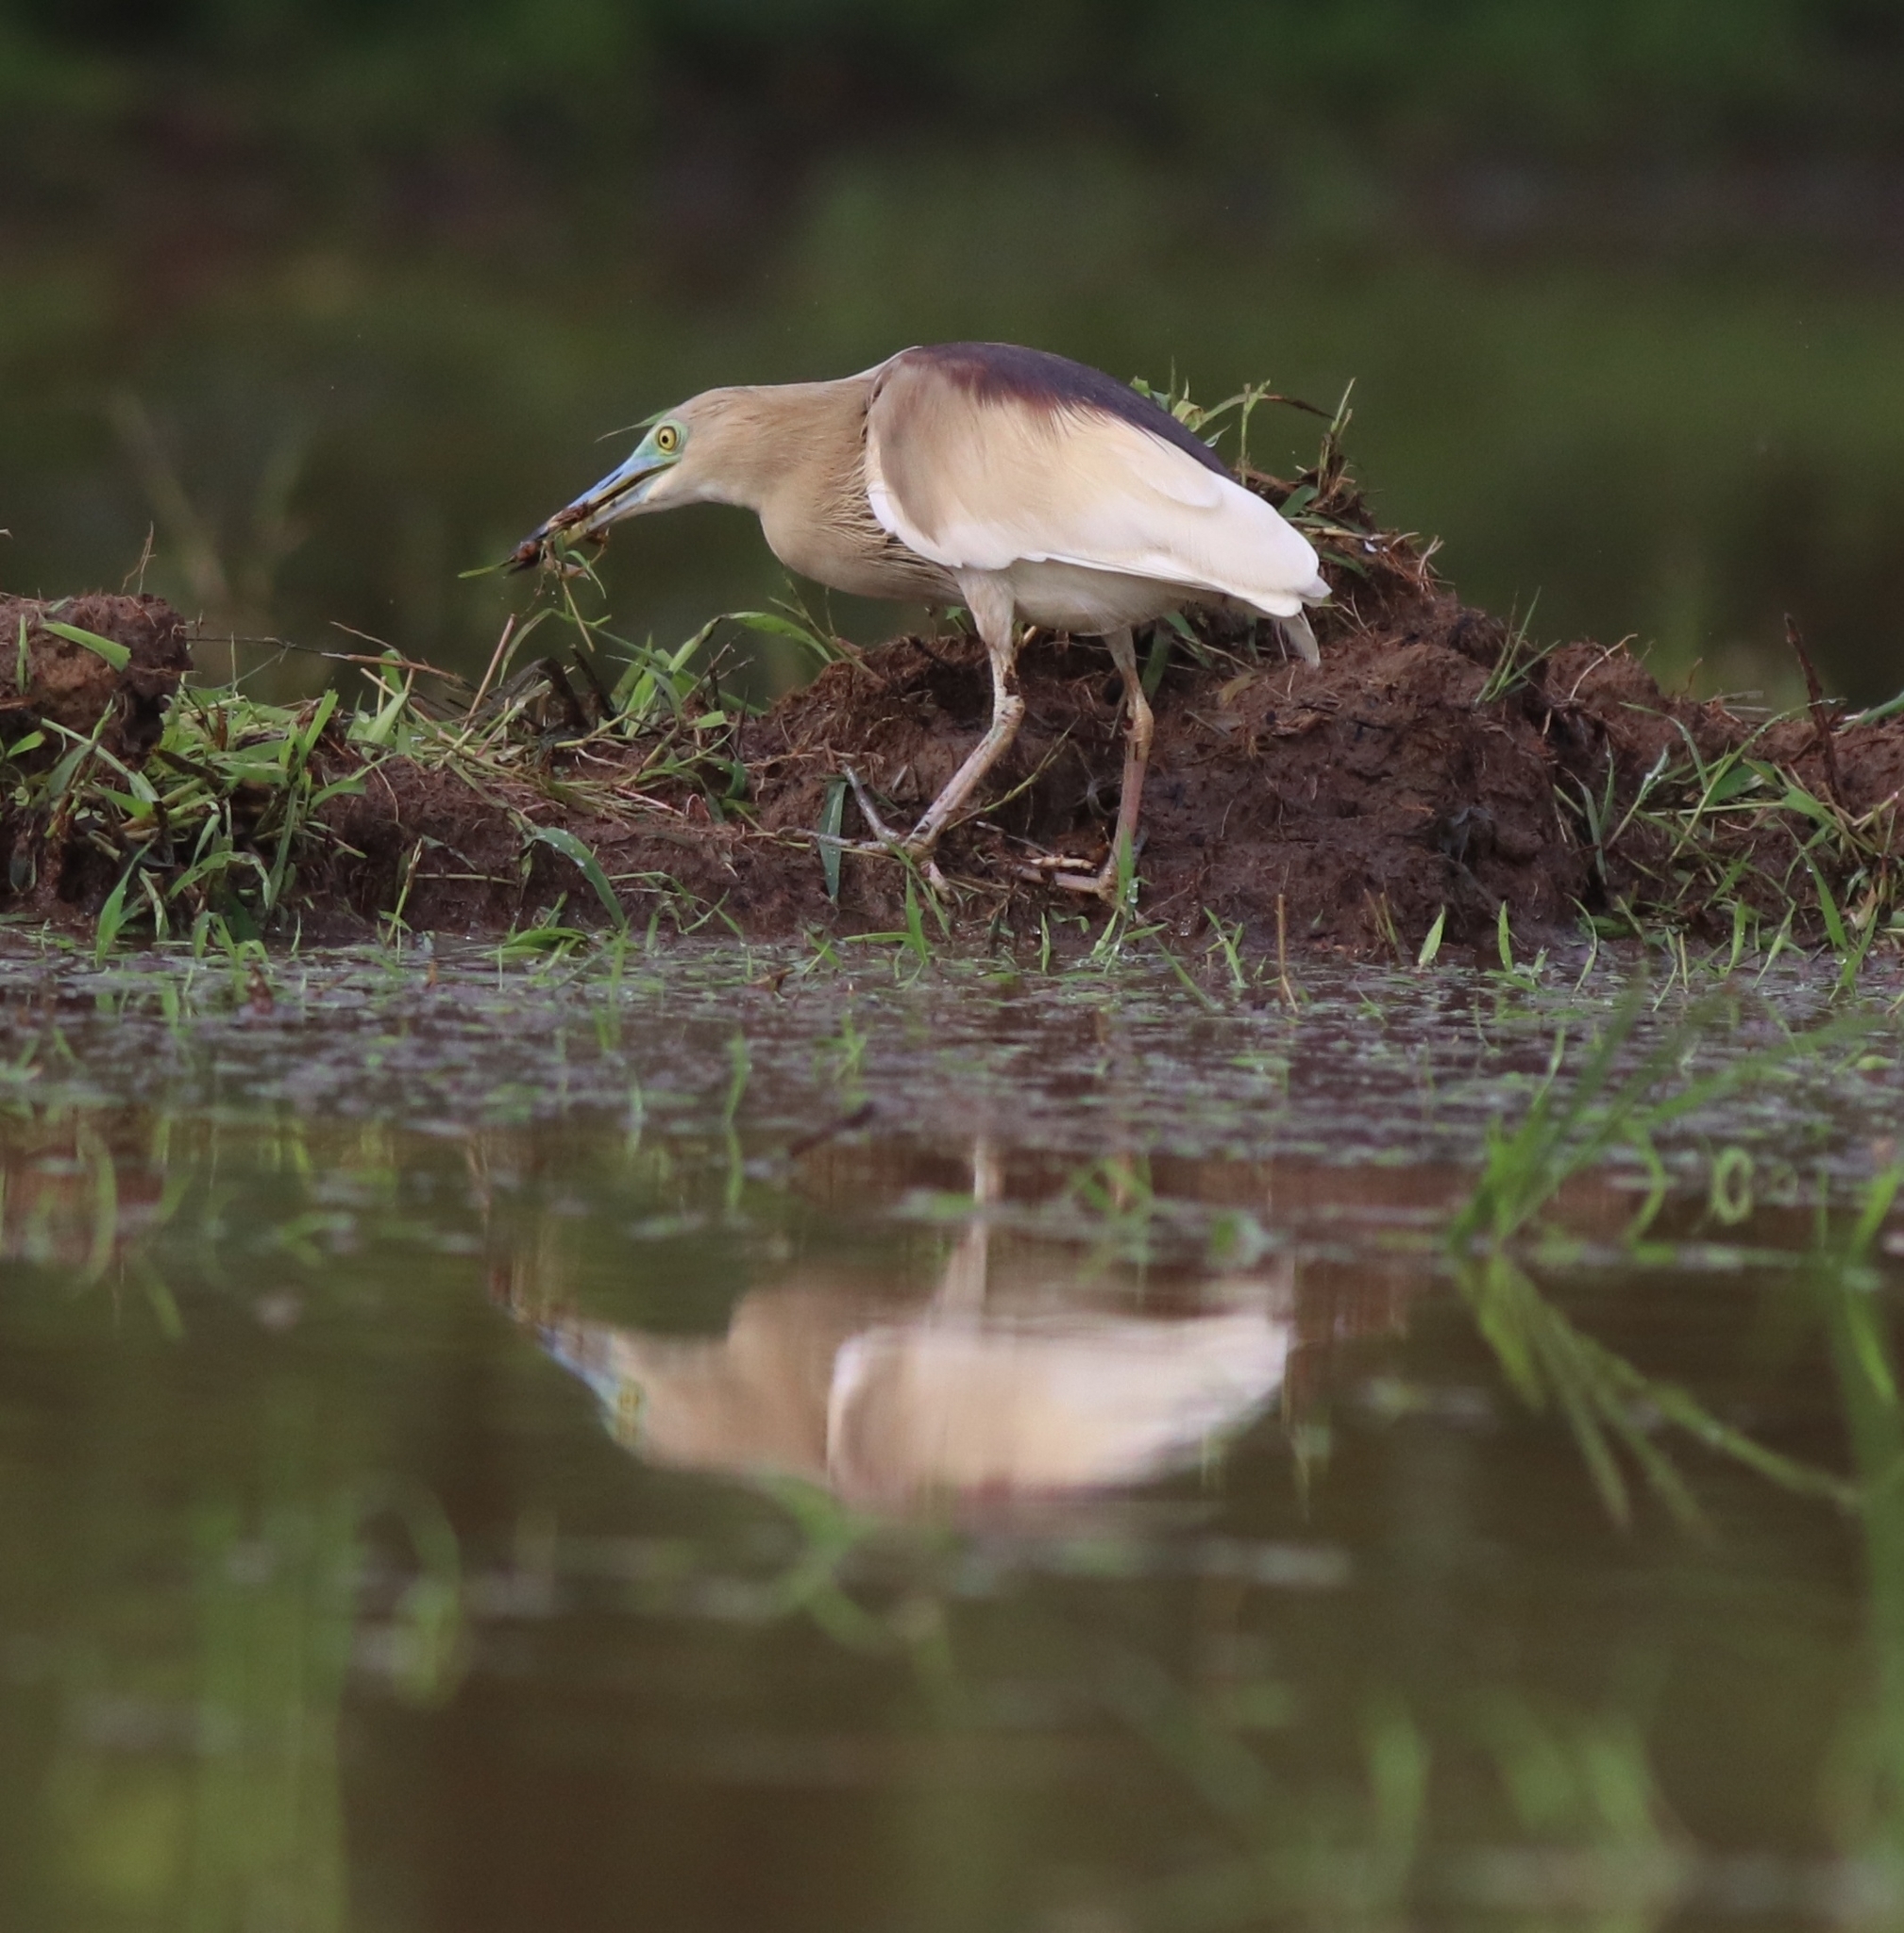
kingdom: Animalia
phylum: Chordata
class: Aves
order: Pelecaniformes
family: Ardeidae
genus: Ardeola
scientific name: Ardeola grayii
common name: Indian pond heron
